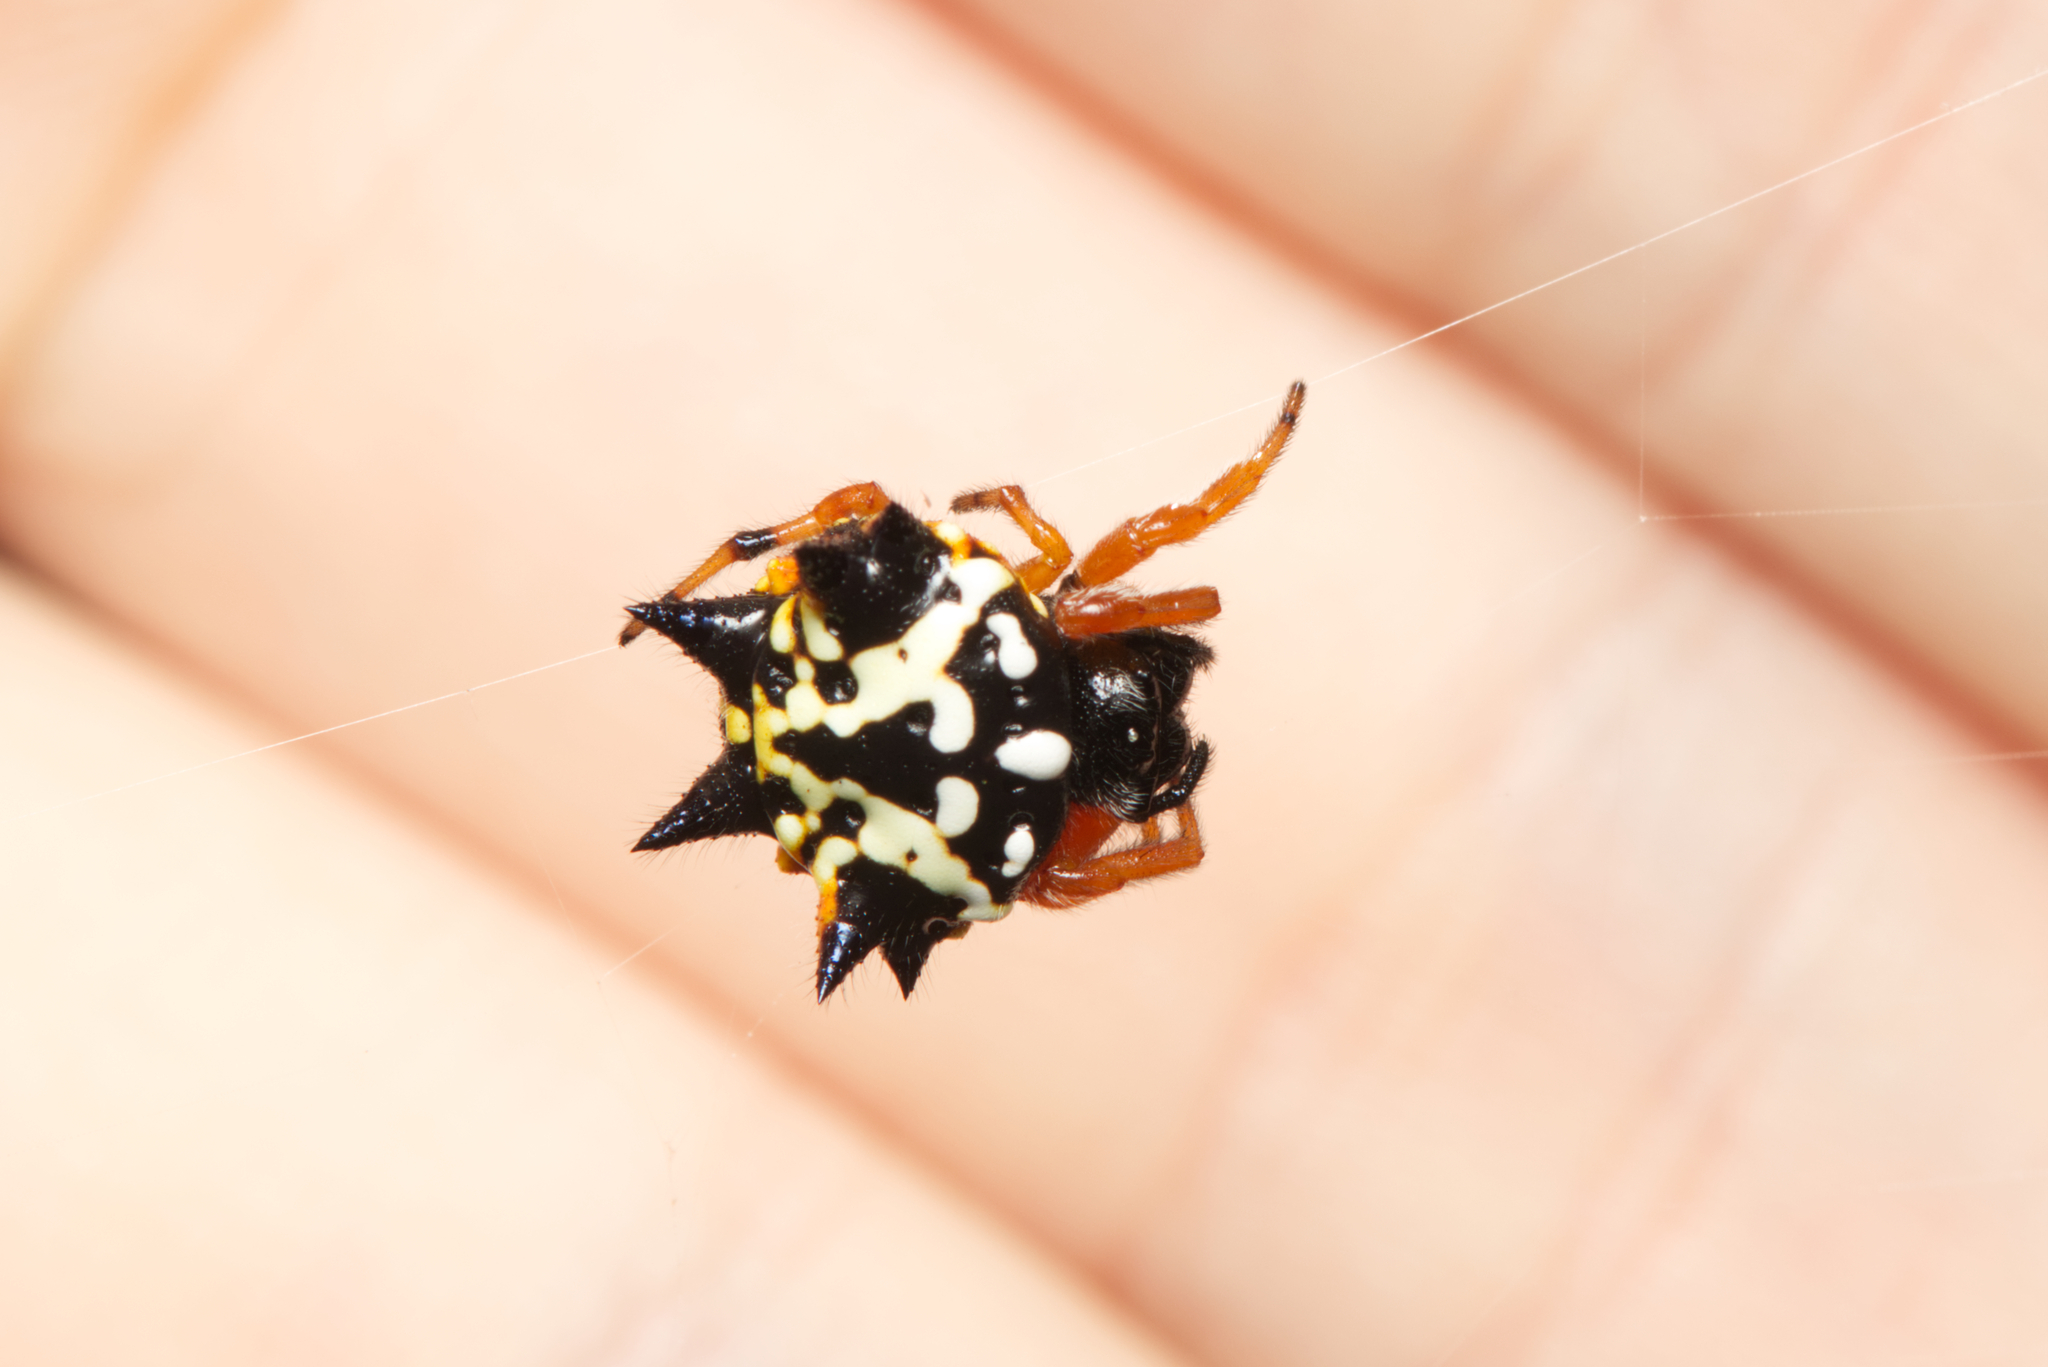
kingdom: Animalia
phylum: Arthropoda
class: Arachnida
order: Araneae
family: Araneidae
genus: Austracantha
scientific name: Austracantha minax
